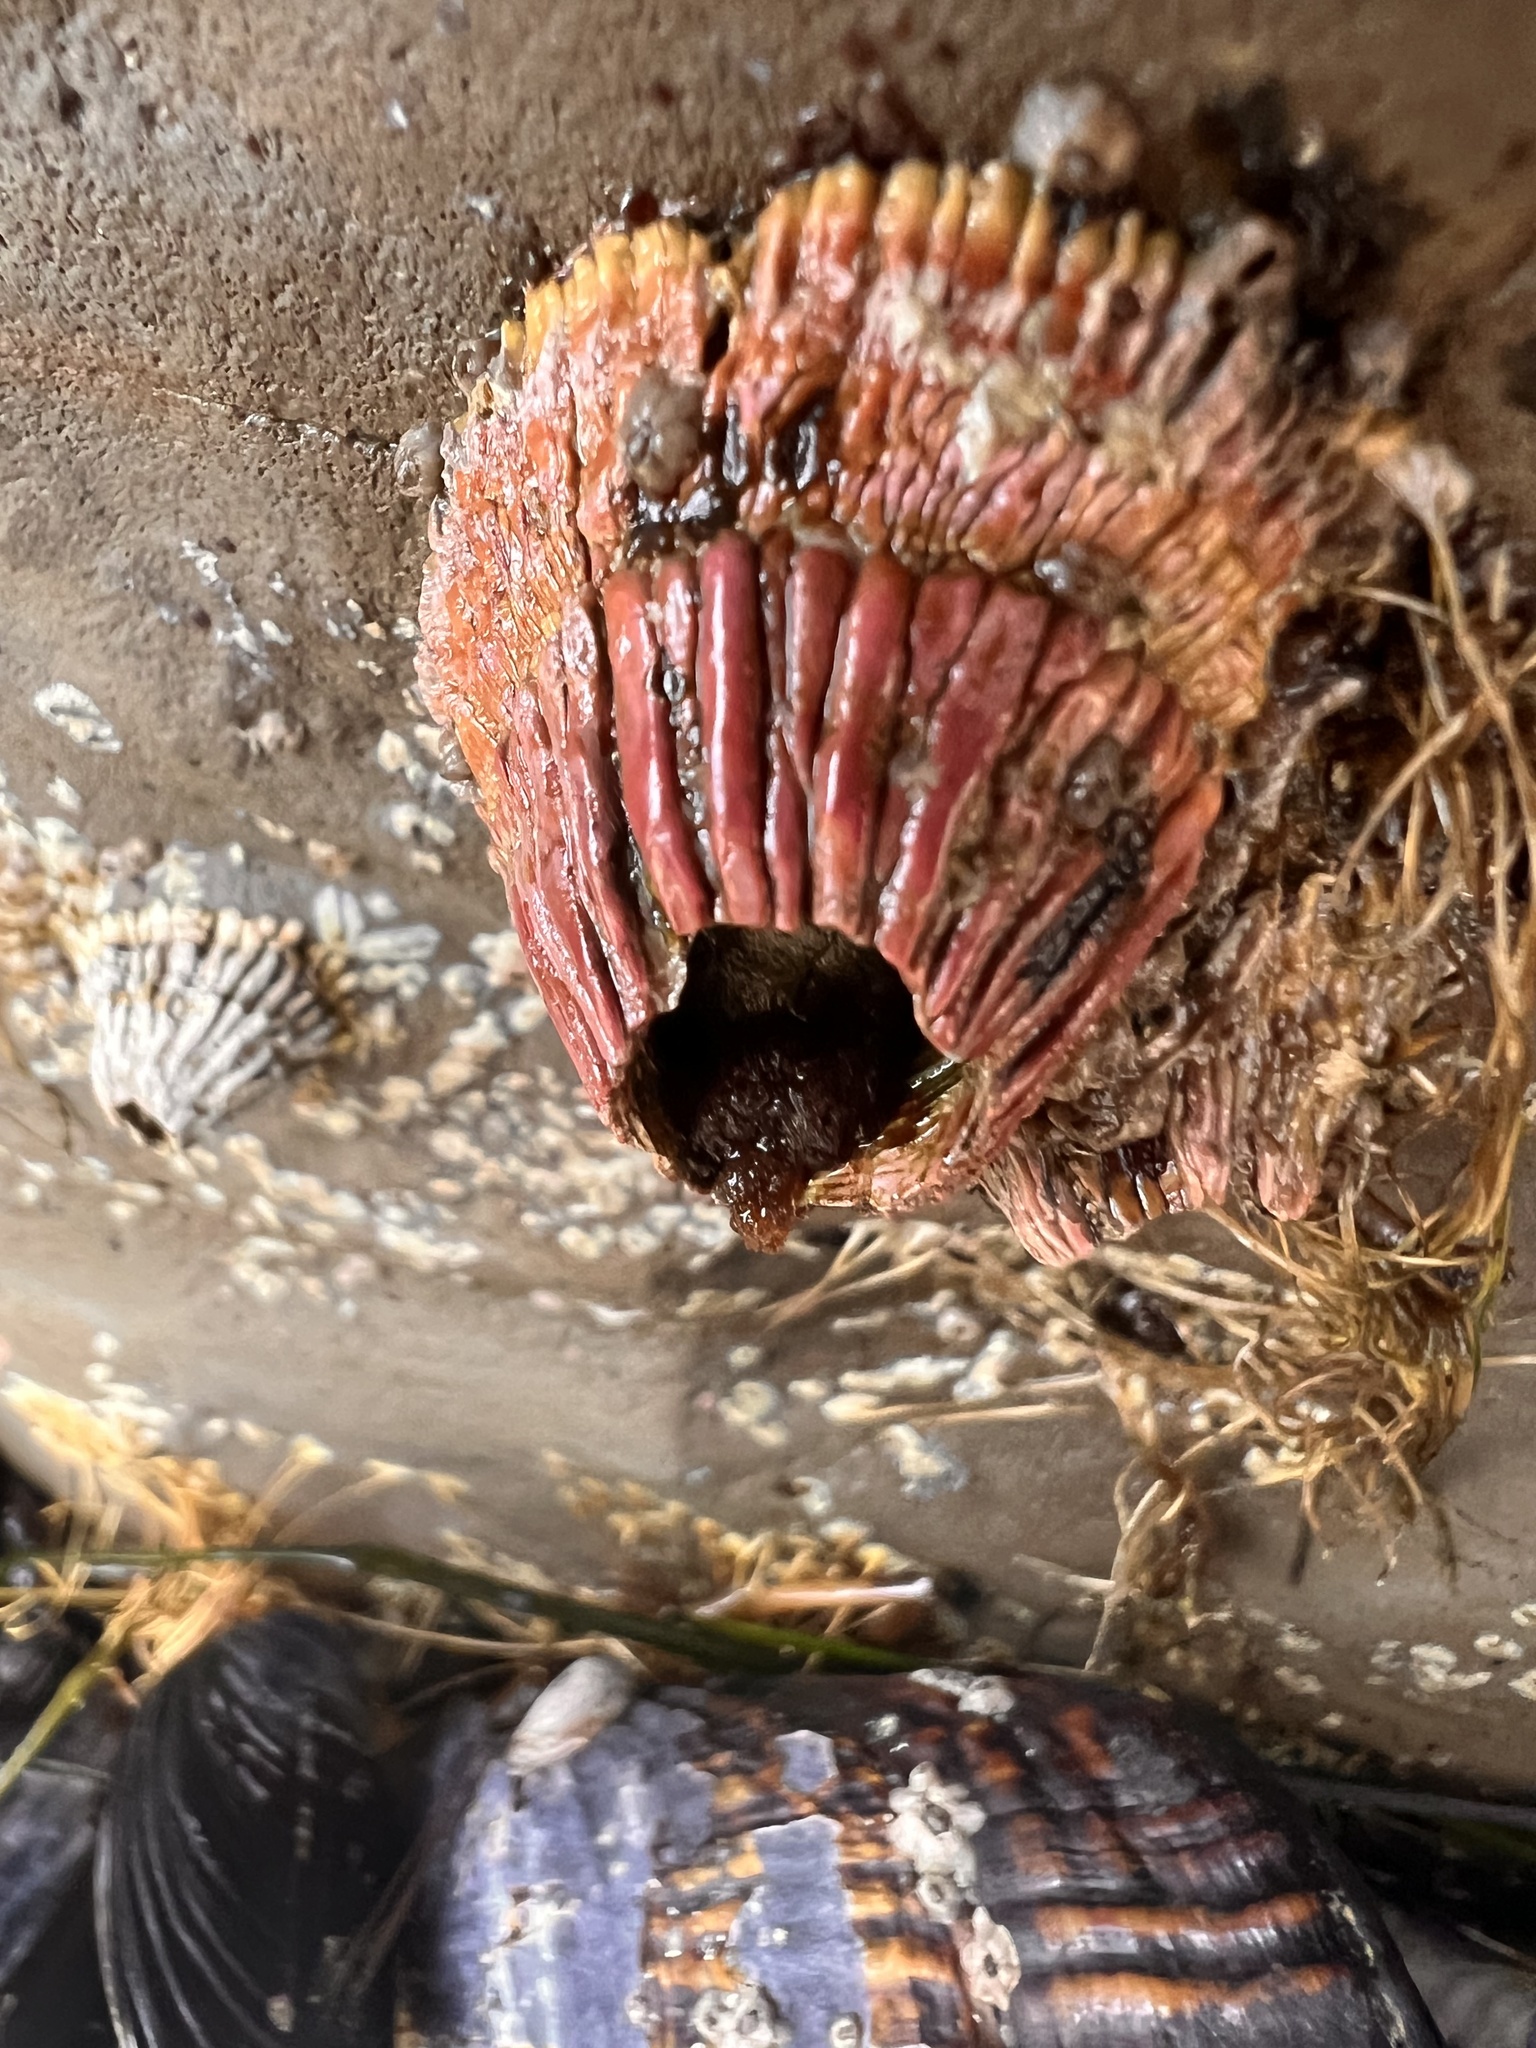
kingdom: Animalia
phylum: Arthropoda
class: Maxillopoda
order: Sessilia
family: Tetraclitidae
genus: Tetraclita
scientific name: Tetraclita rubescens
